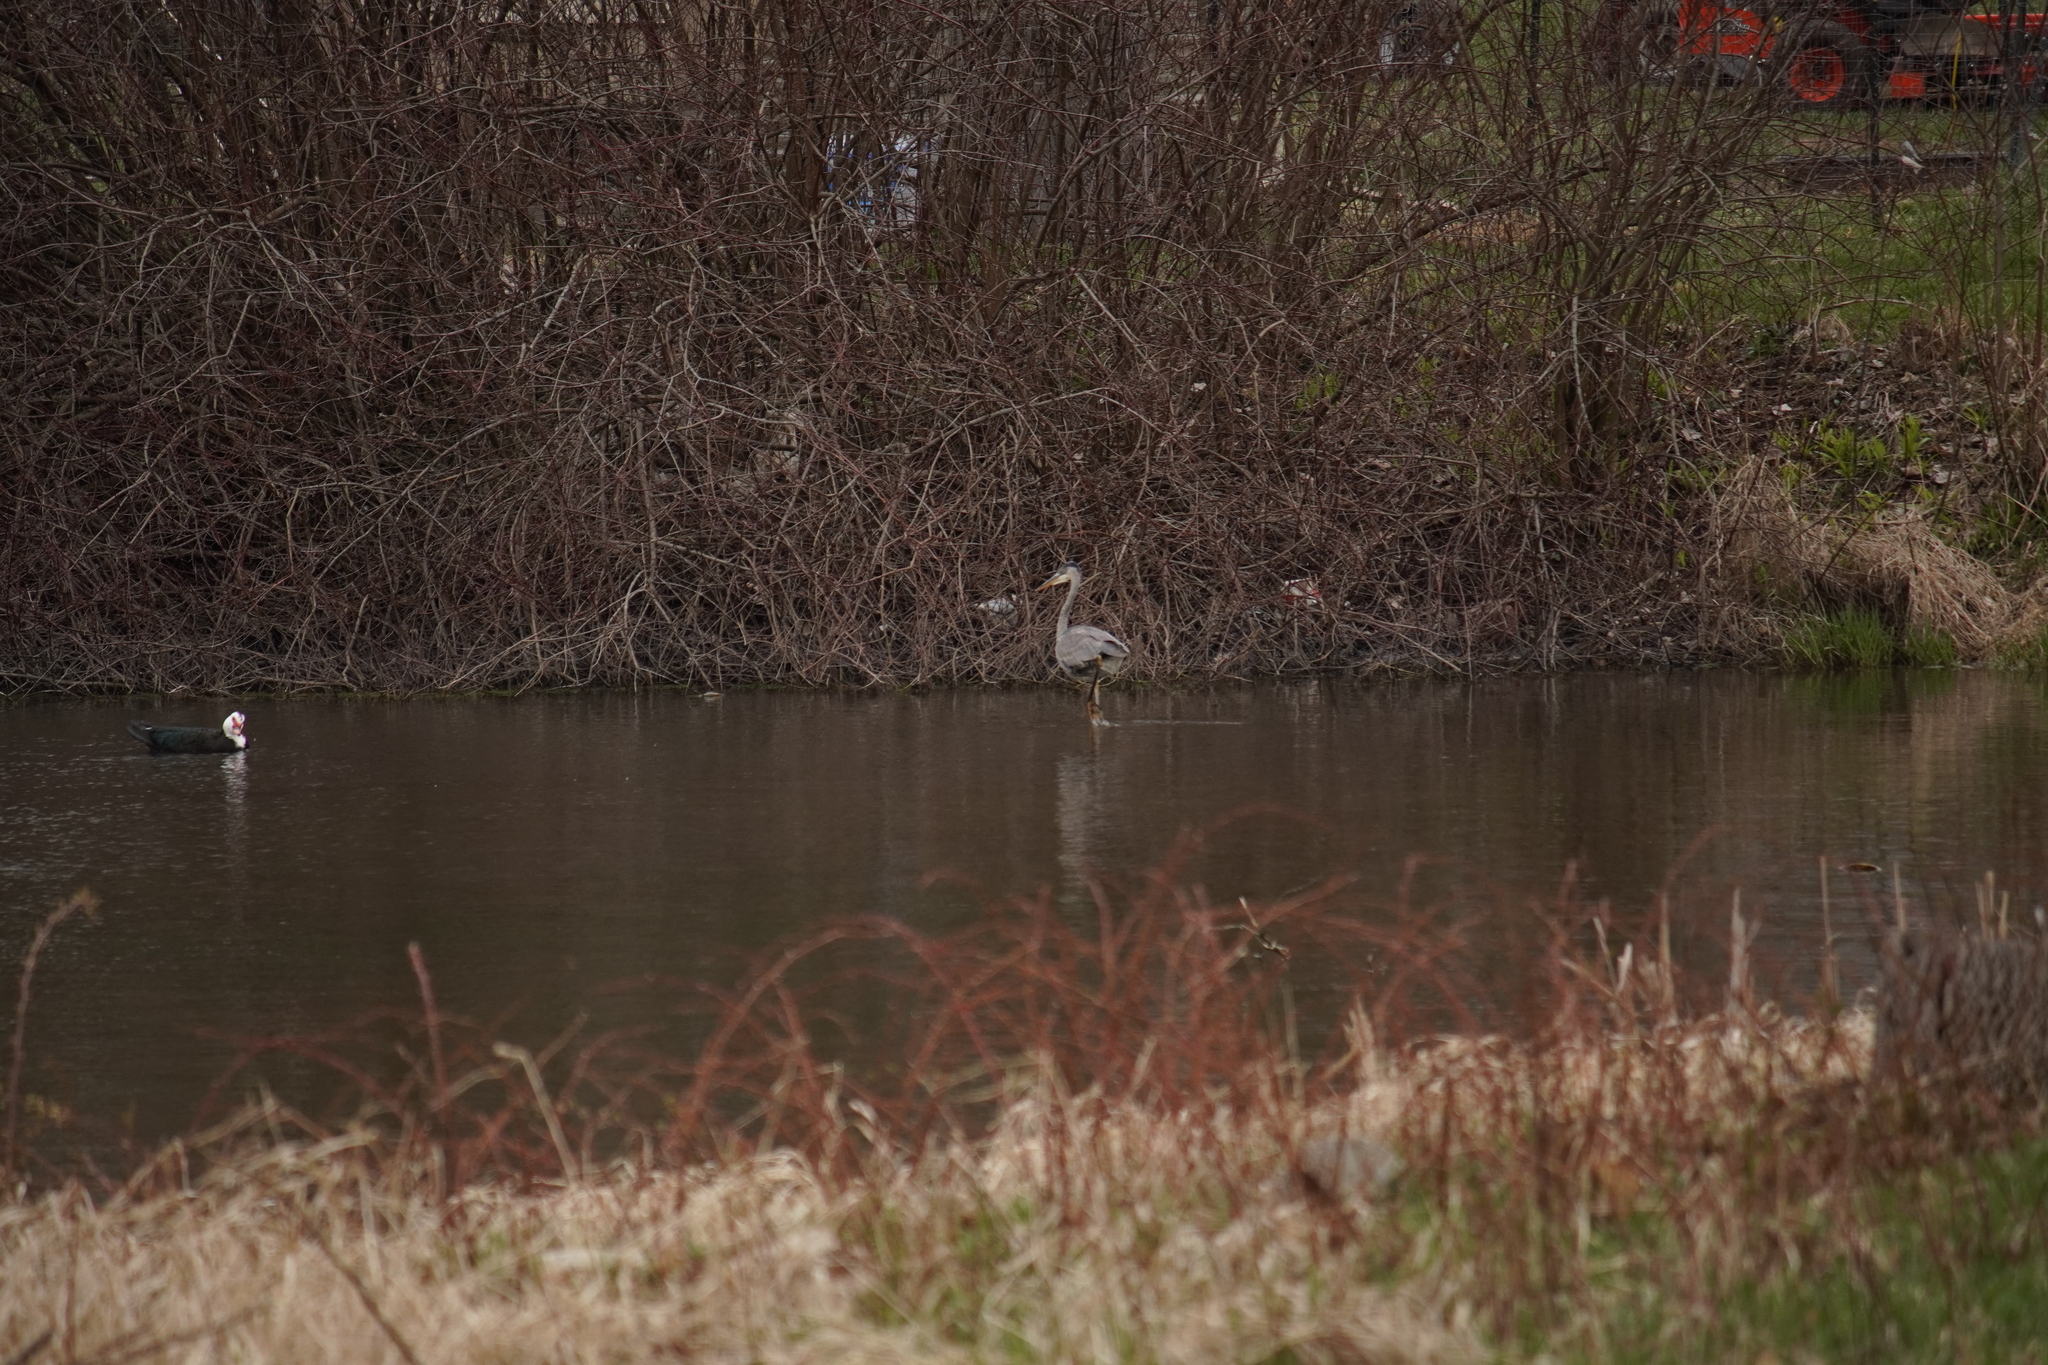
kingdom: Animalia
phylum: Chordata
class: Aves
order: Pelecaniformes
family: Ardeidae
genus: Ardea
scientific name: Ardea herodias
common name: Great blue heron
